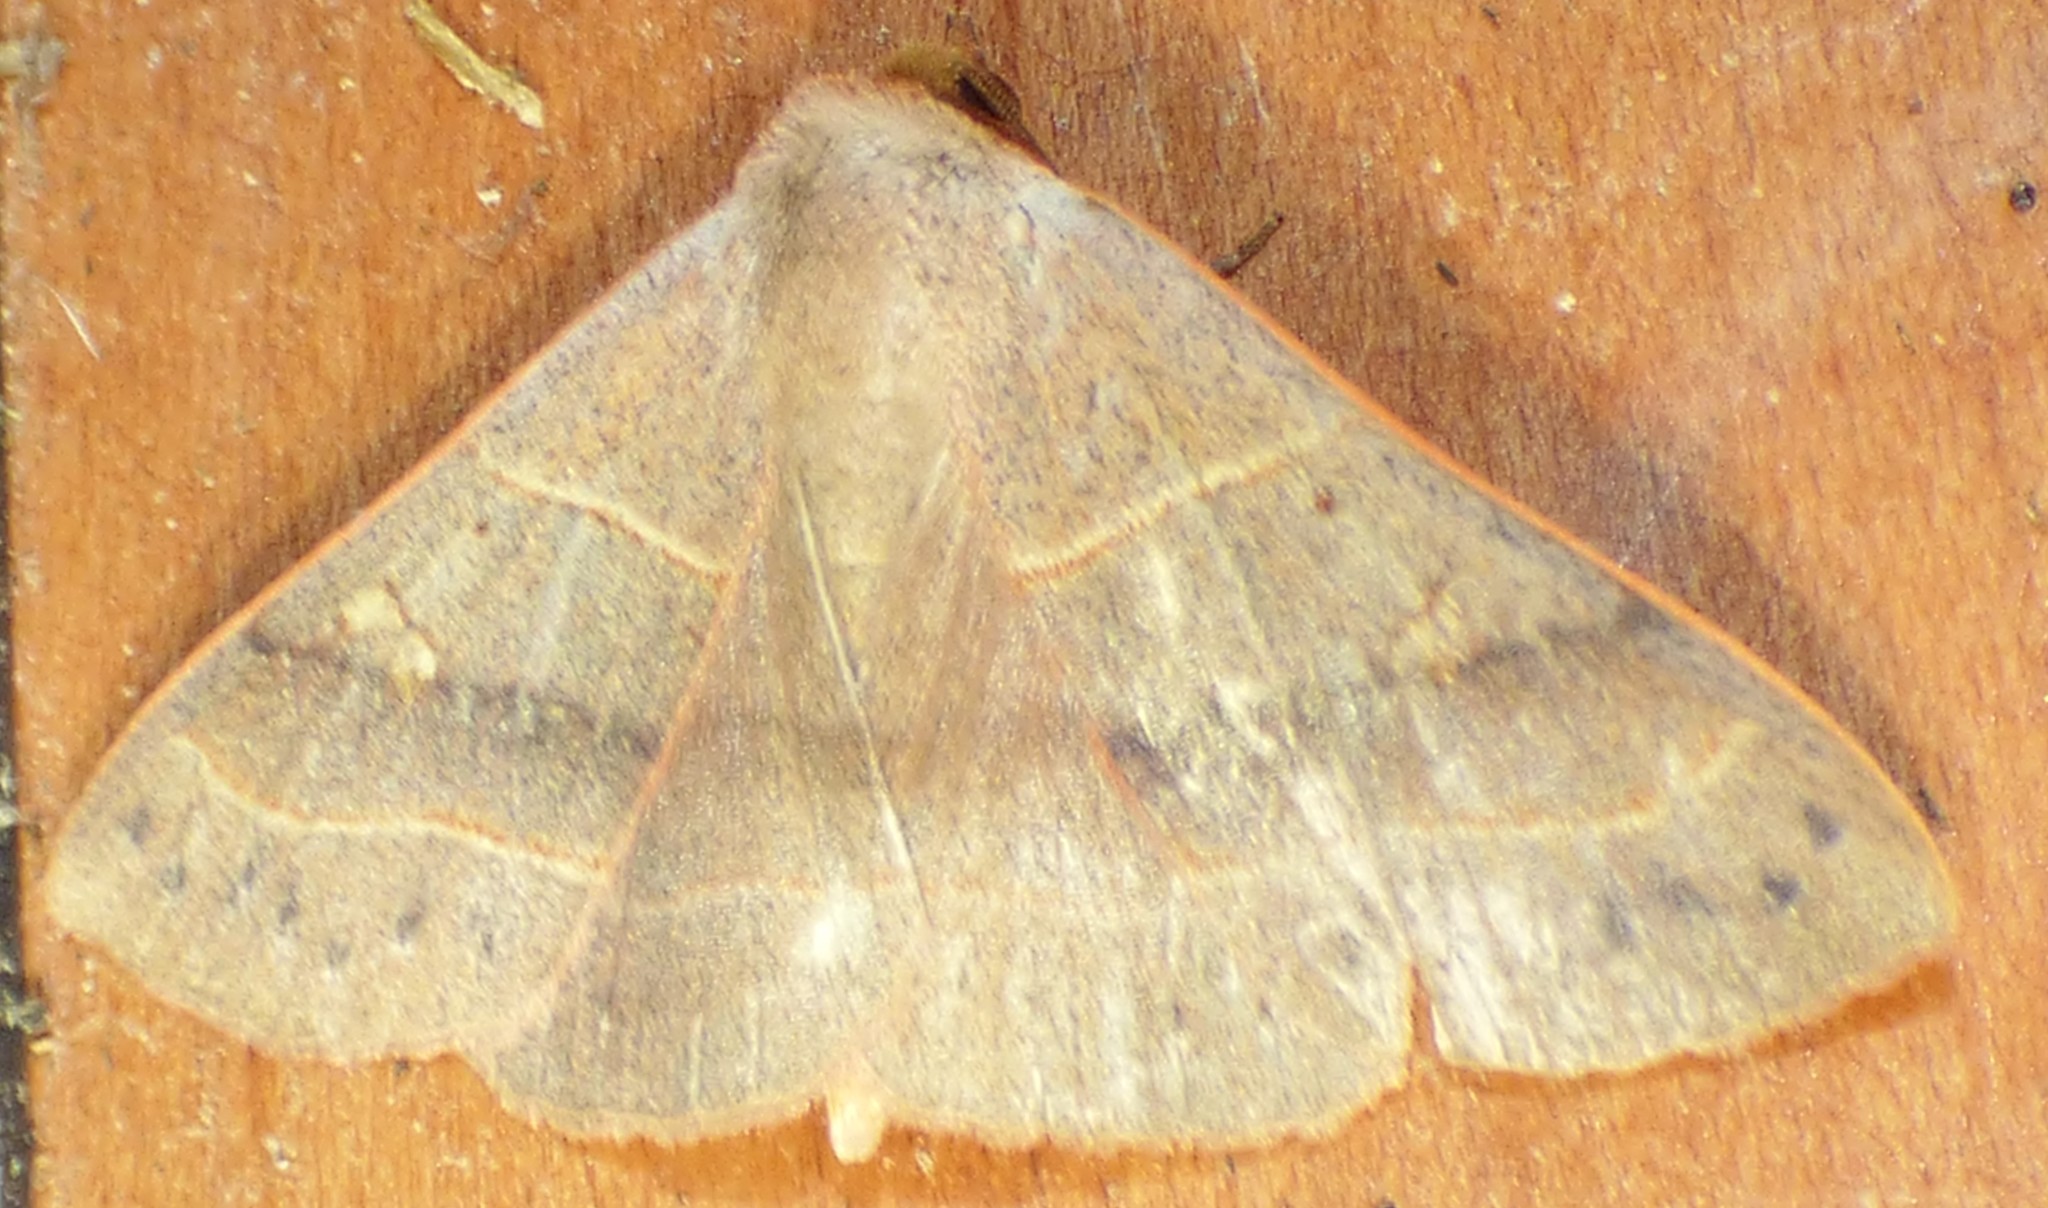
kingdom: Animalia
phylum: Arthropoda
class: Insecta
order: Lepidoptera
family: Erebidae
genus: Panopoda
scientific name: Panopoda rufimargo
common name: Red-lined panopoda moth
